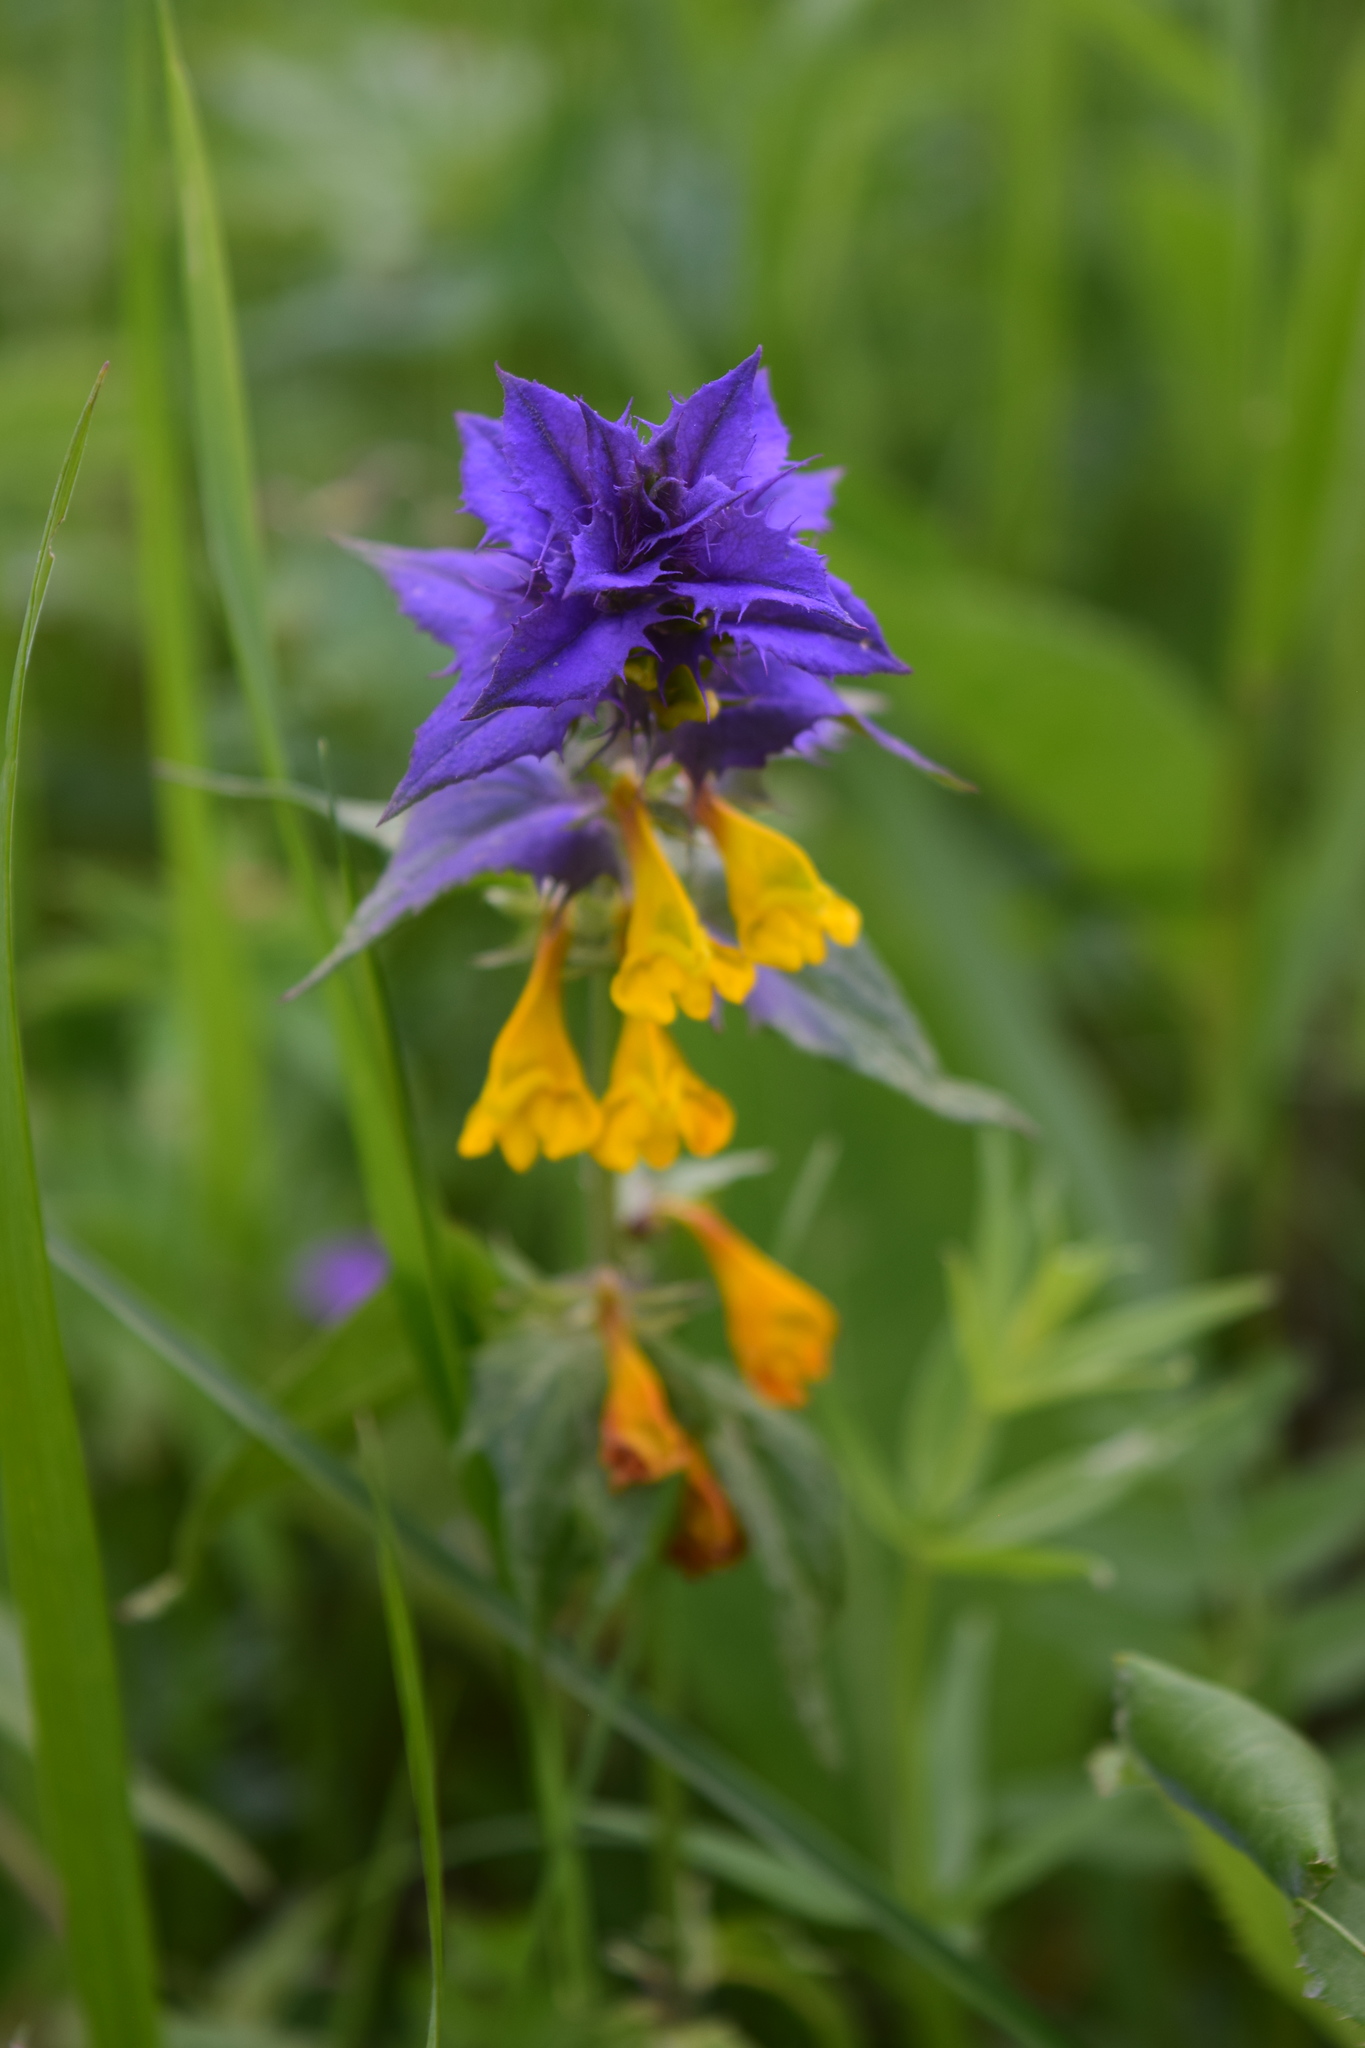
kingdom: Plantae
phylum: Tracheophyta
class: Magnoliopsida
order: Lamiales
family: Orobanchaceae
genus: Melampyrum
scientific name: Melampyrum nemorosum
